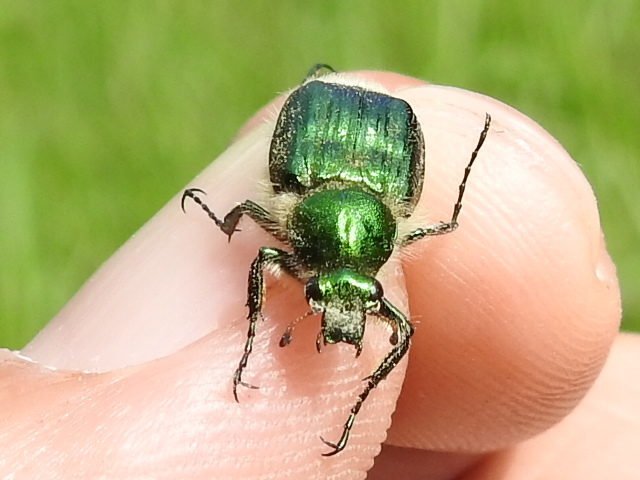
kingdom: Animalia
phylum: Arthropoda
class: Insecta
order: Coleoptera
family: Scarabaeidae
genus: Trichiotinus
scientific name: Trichiotinus lunulatus
